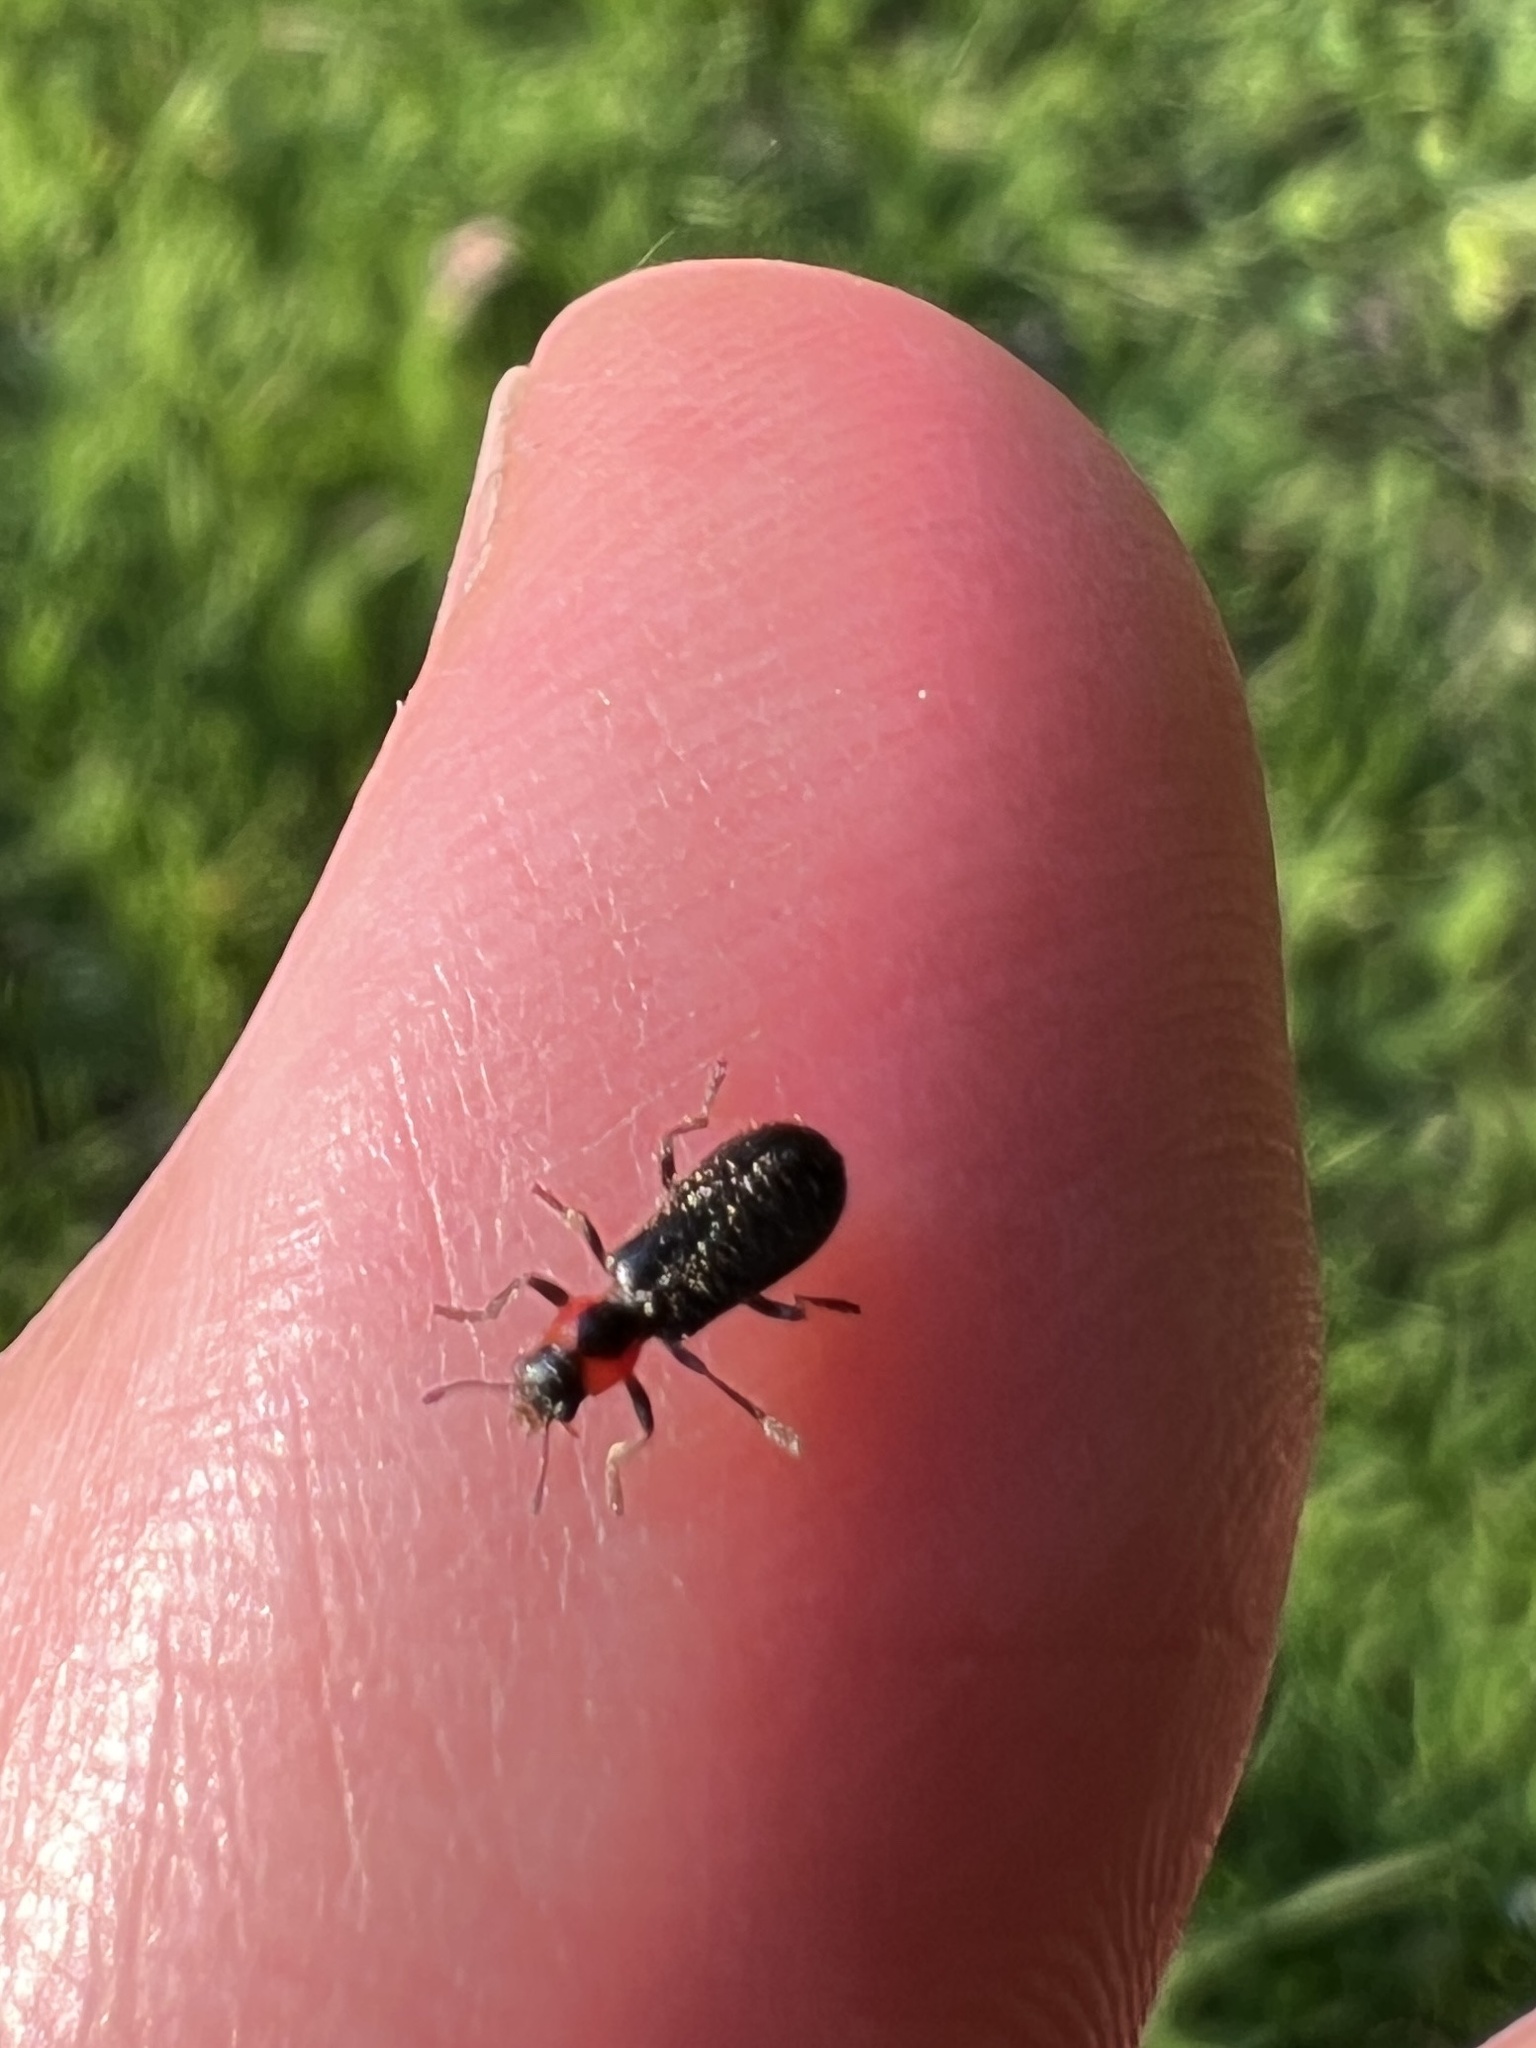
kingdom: Animalia
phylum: Arthropoda
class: Insecta
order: Coleoptera
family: Cleridae
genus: Placopterus
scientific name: Placopterus thoracicus
